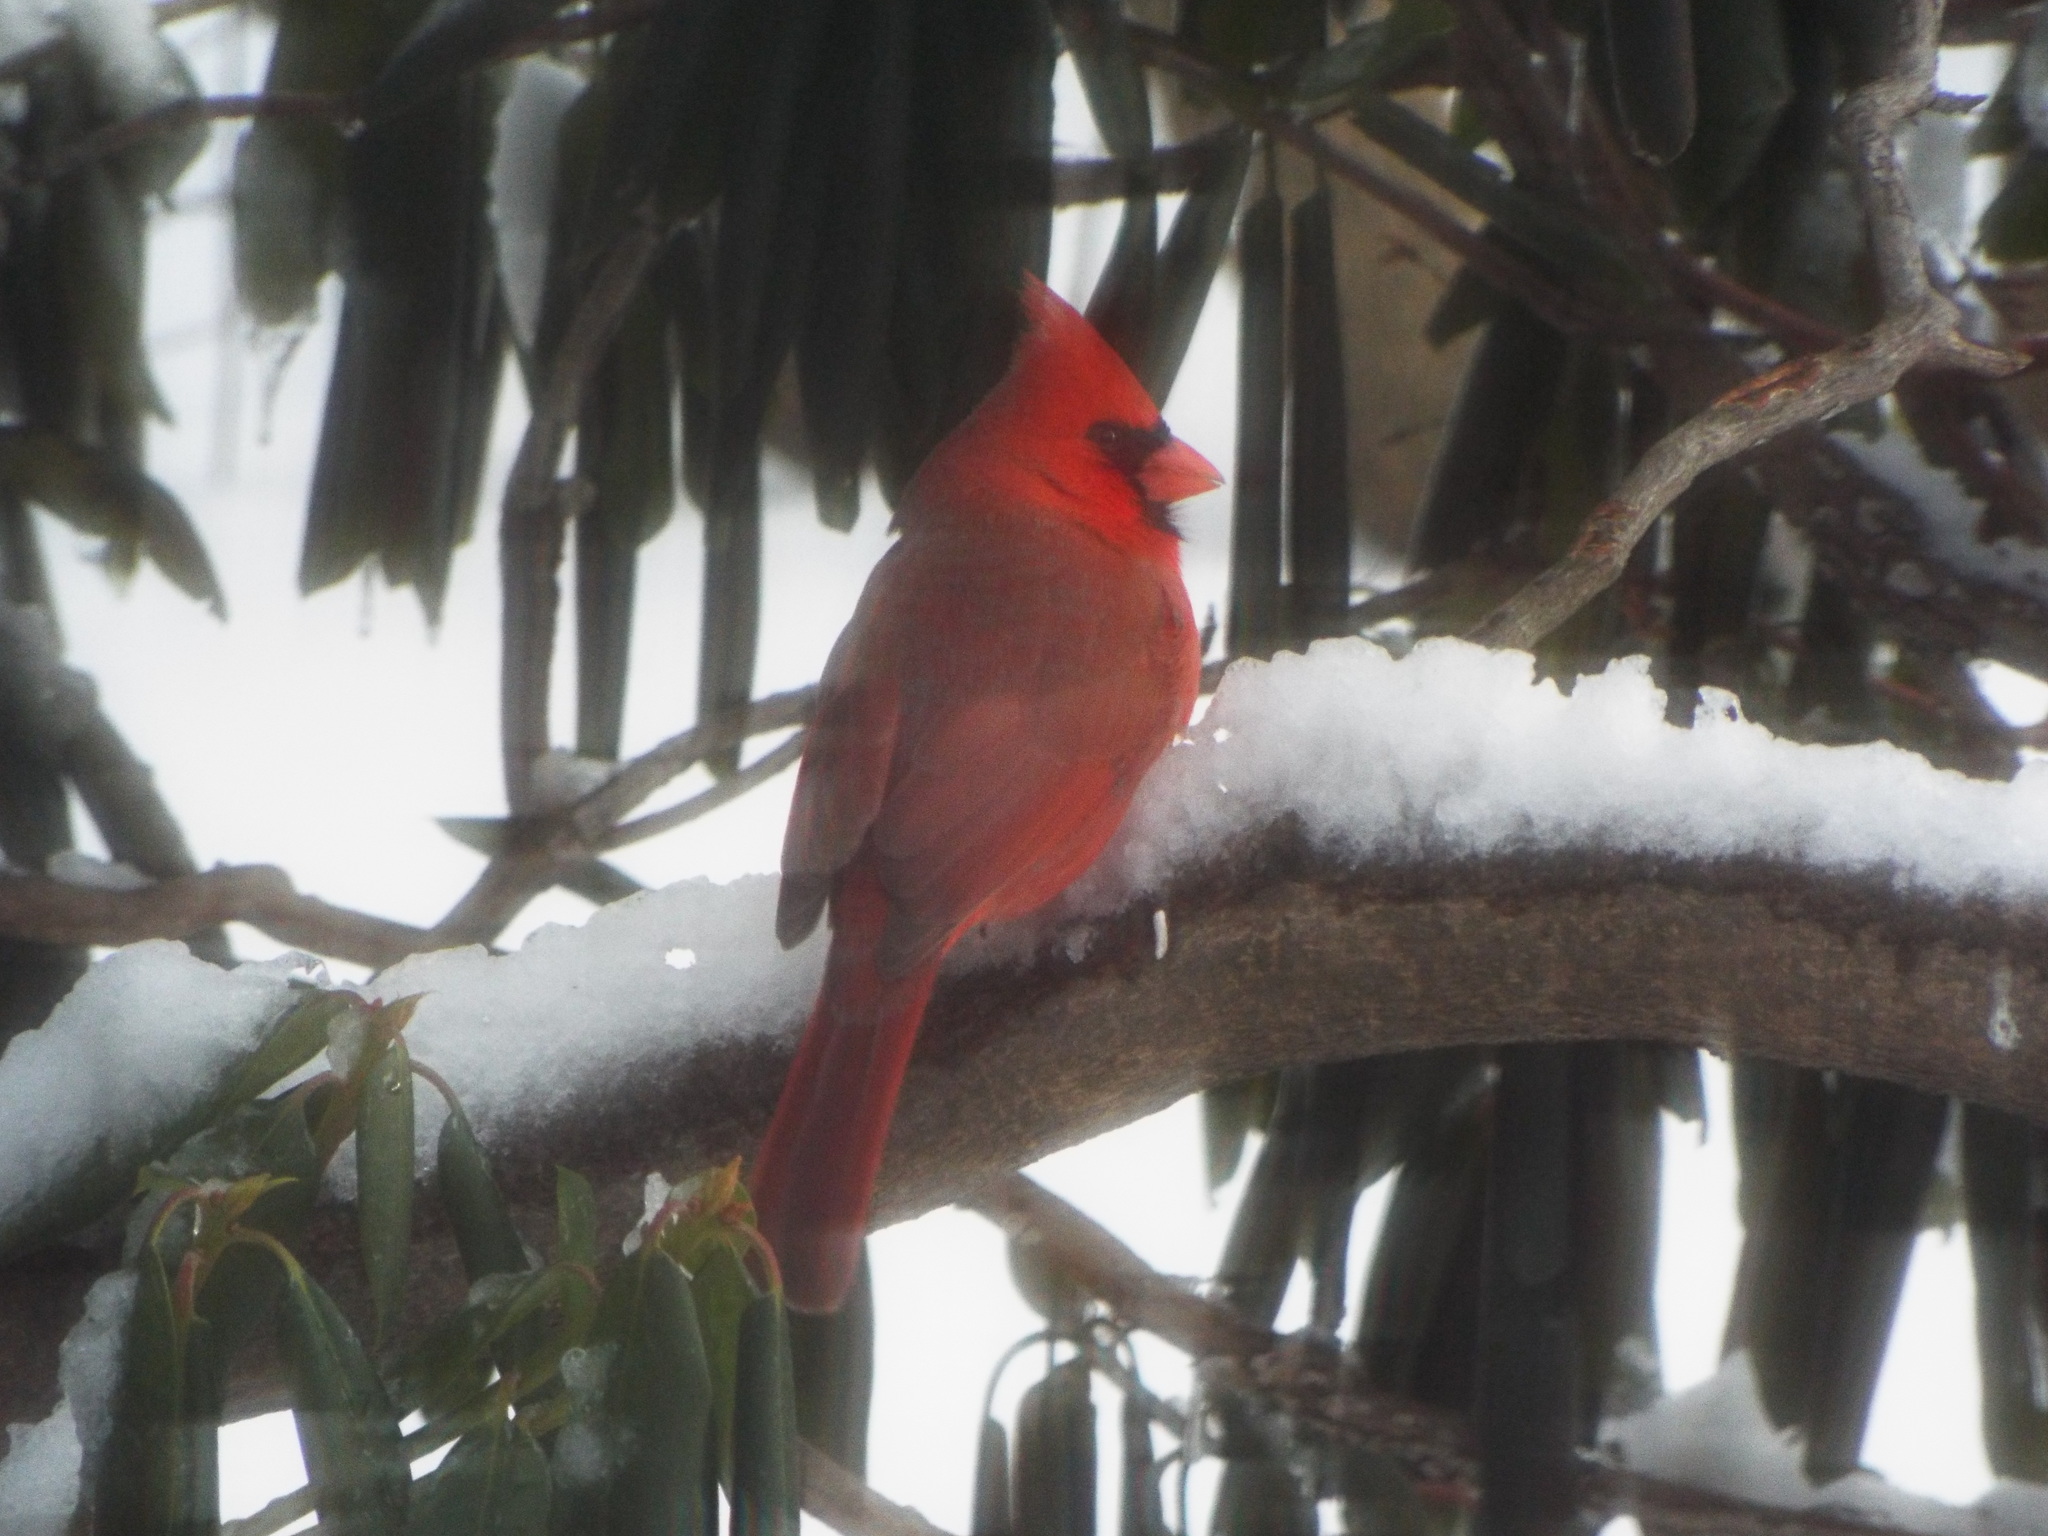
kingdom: Animalia
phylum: Chordata
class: Aves
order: Passeriformes
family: Cardinalidae
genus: Cardinalis
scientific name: Cardinalis cardinalis
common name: Northern cardinal
